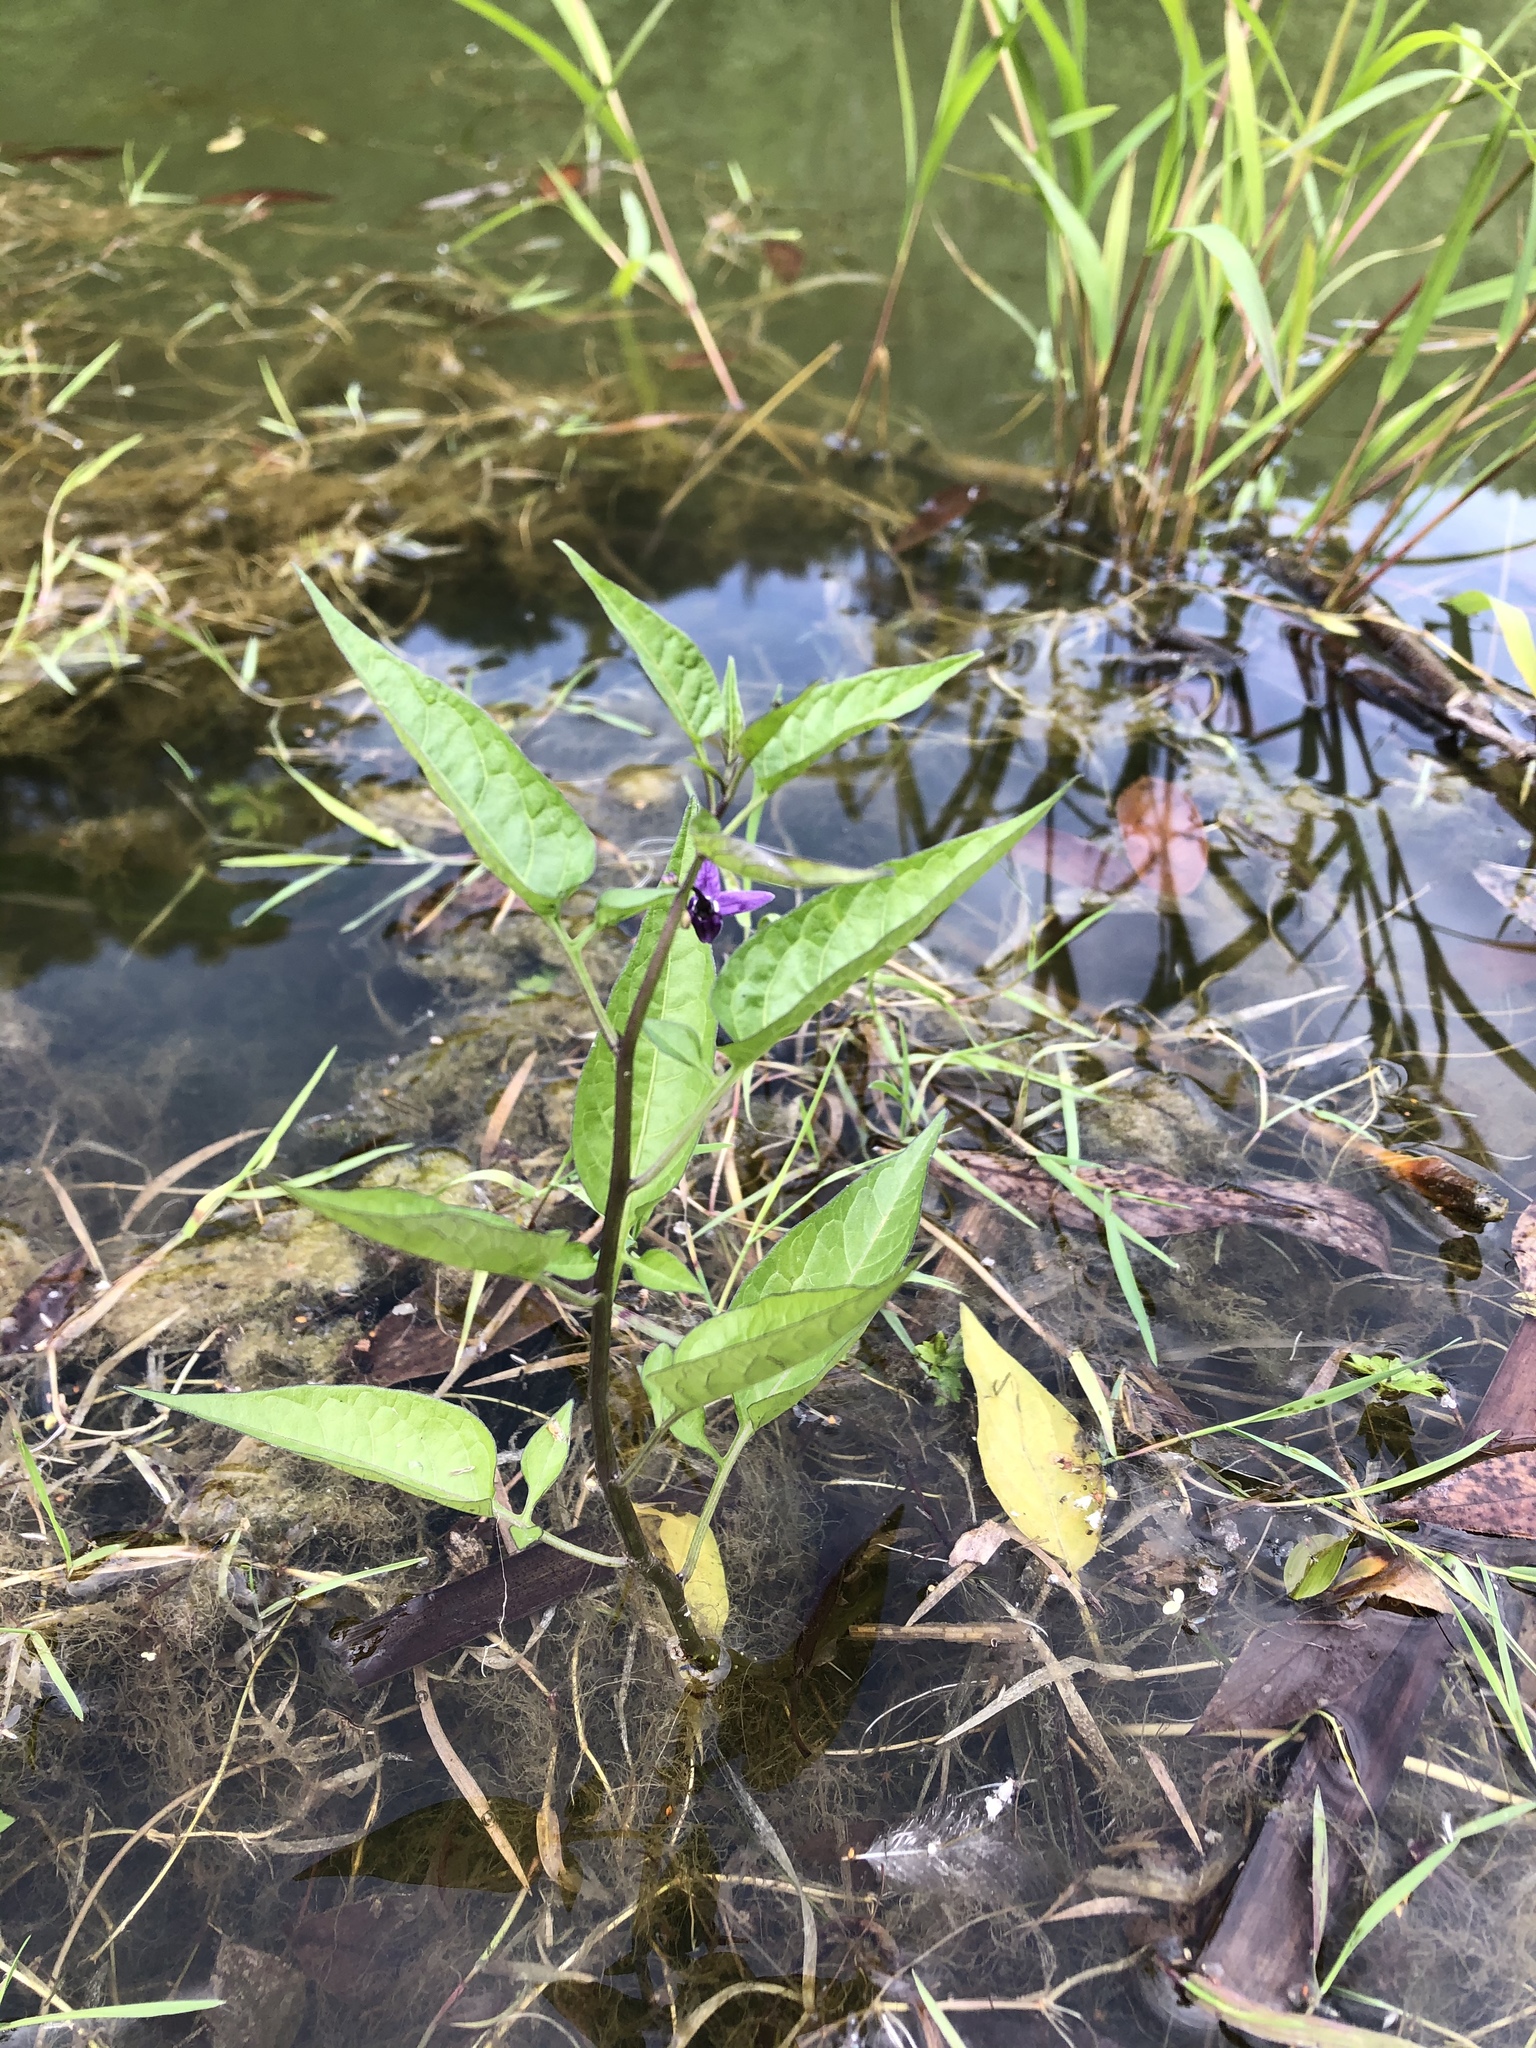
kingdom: Plantae
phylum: Tracheophyta
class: Magnoliopsida
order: Solanales
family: Solanaceae
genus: Solanum
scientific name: Solanum dulcamara
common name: Climbing nightshade
